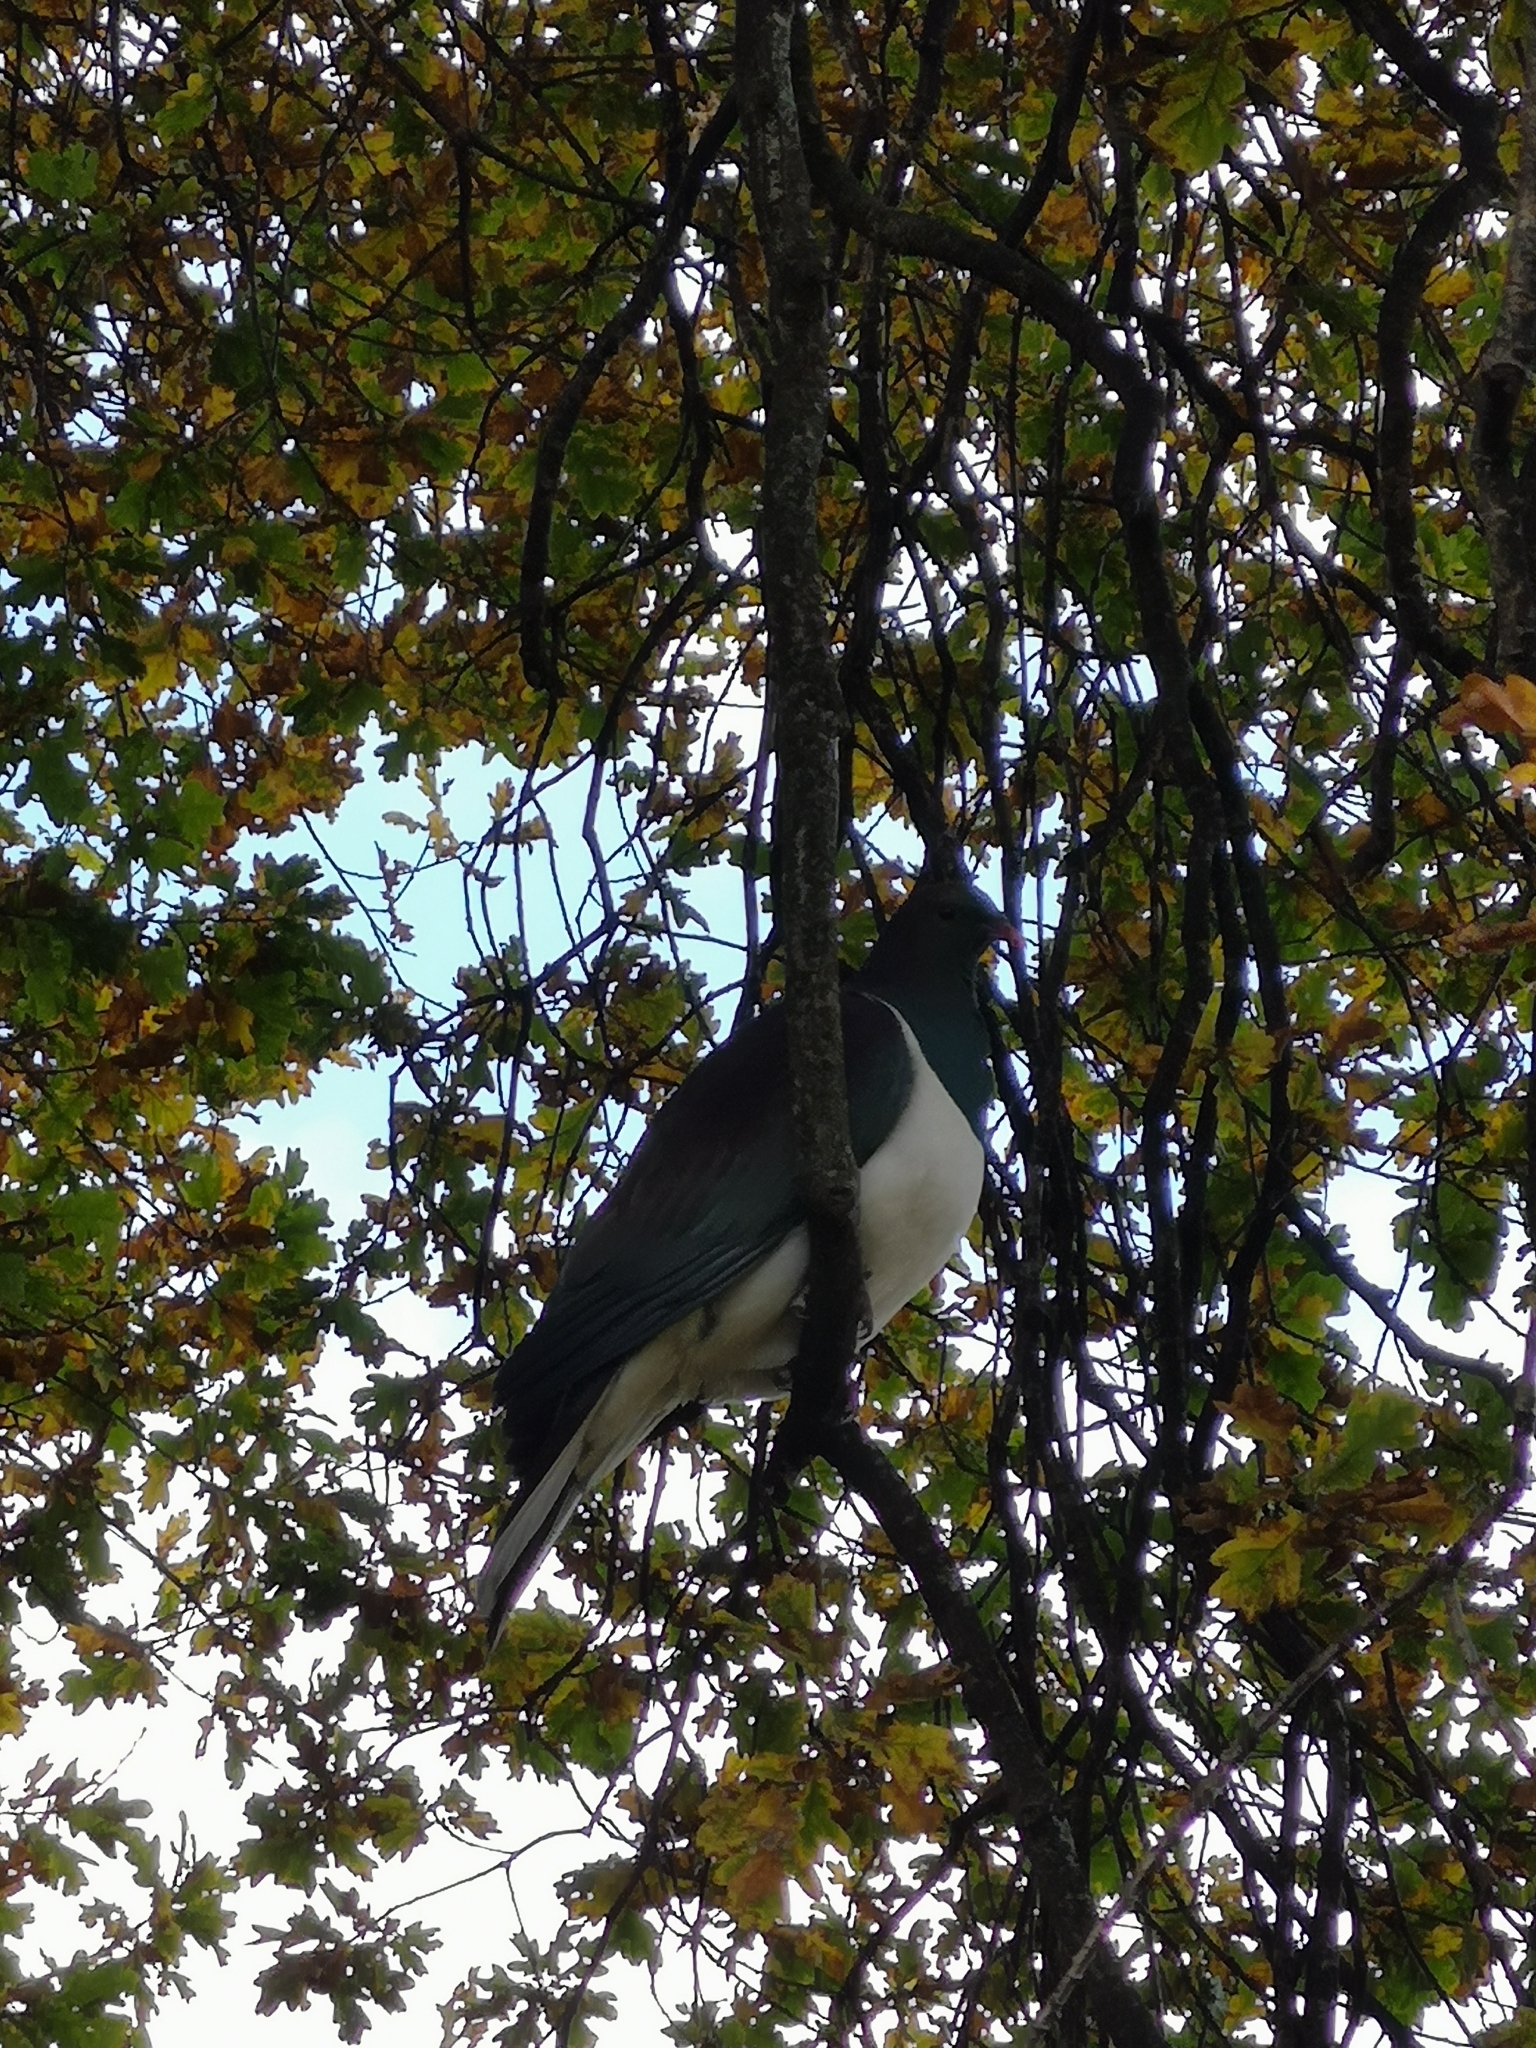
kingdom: Animalia
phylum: Chordata
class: Aves
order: Columbiformes
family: Columbidae
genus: Hemiphaga
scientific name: Hemiphaga novaeseelandiae
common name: New zealand pigeon
